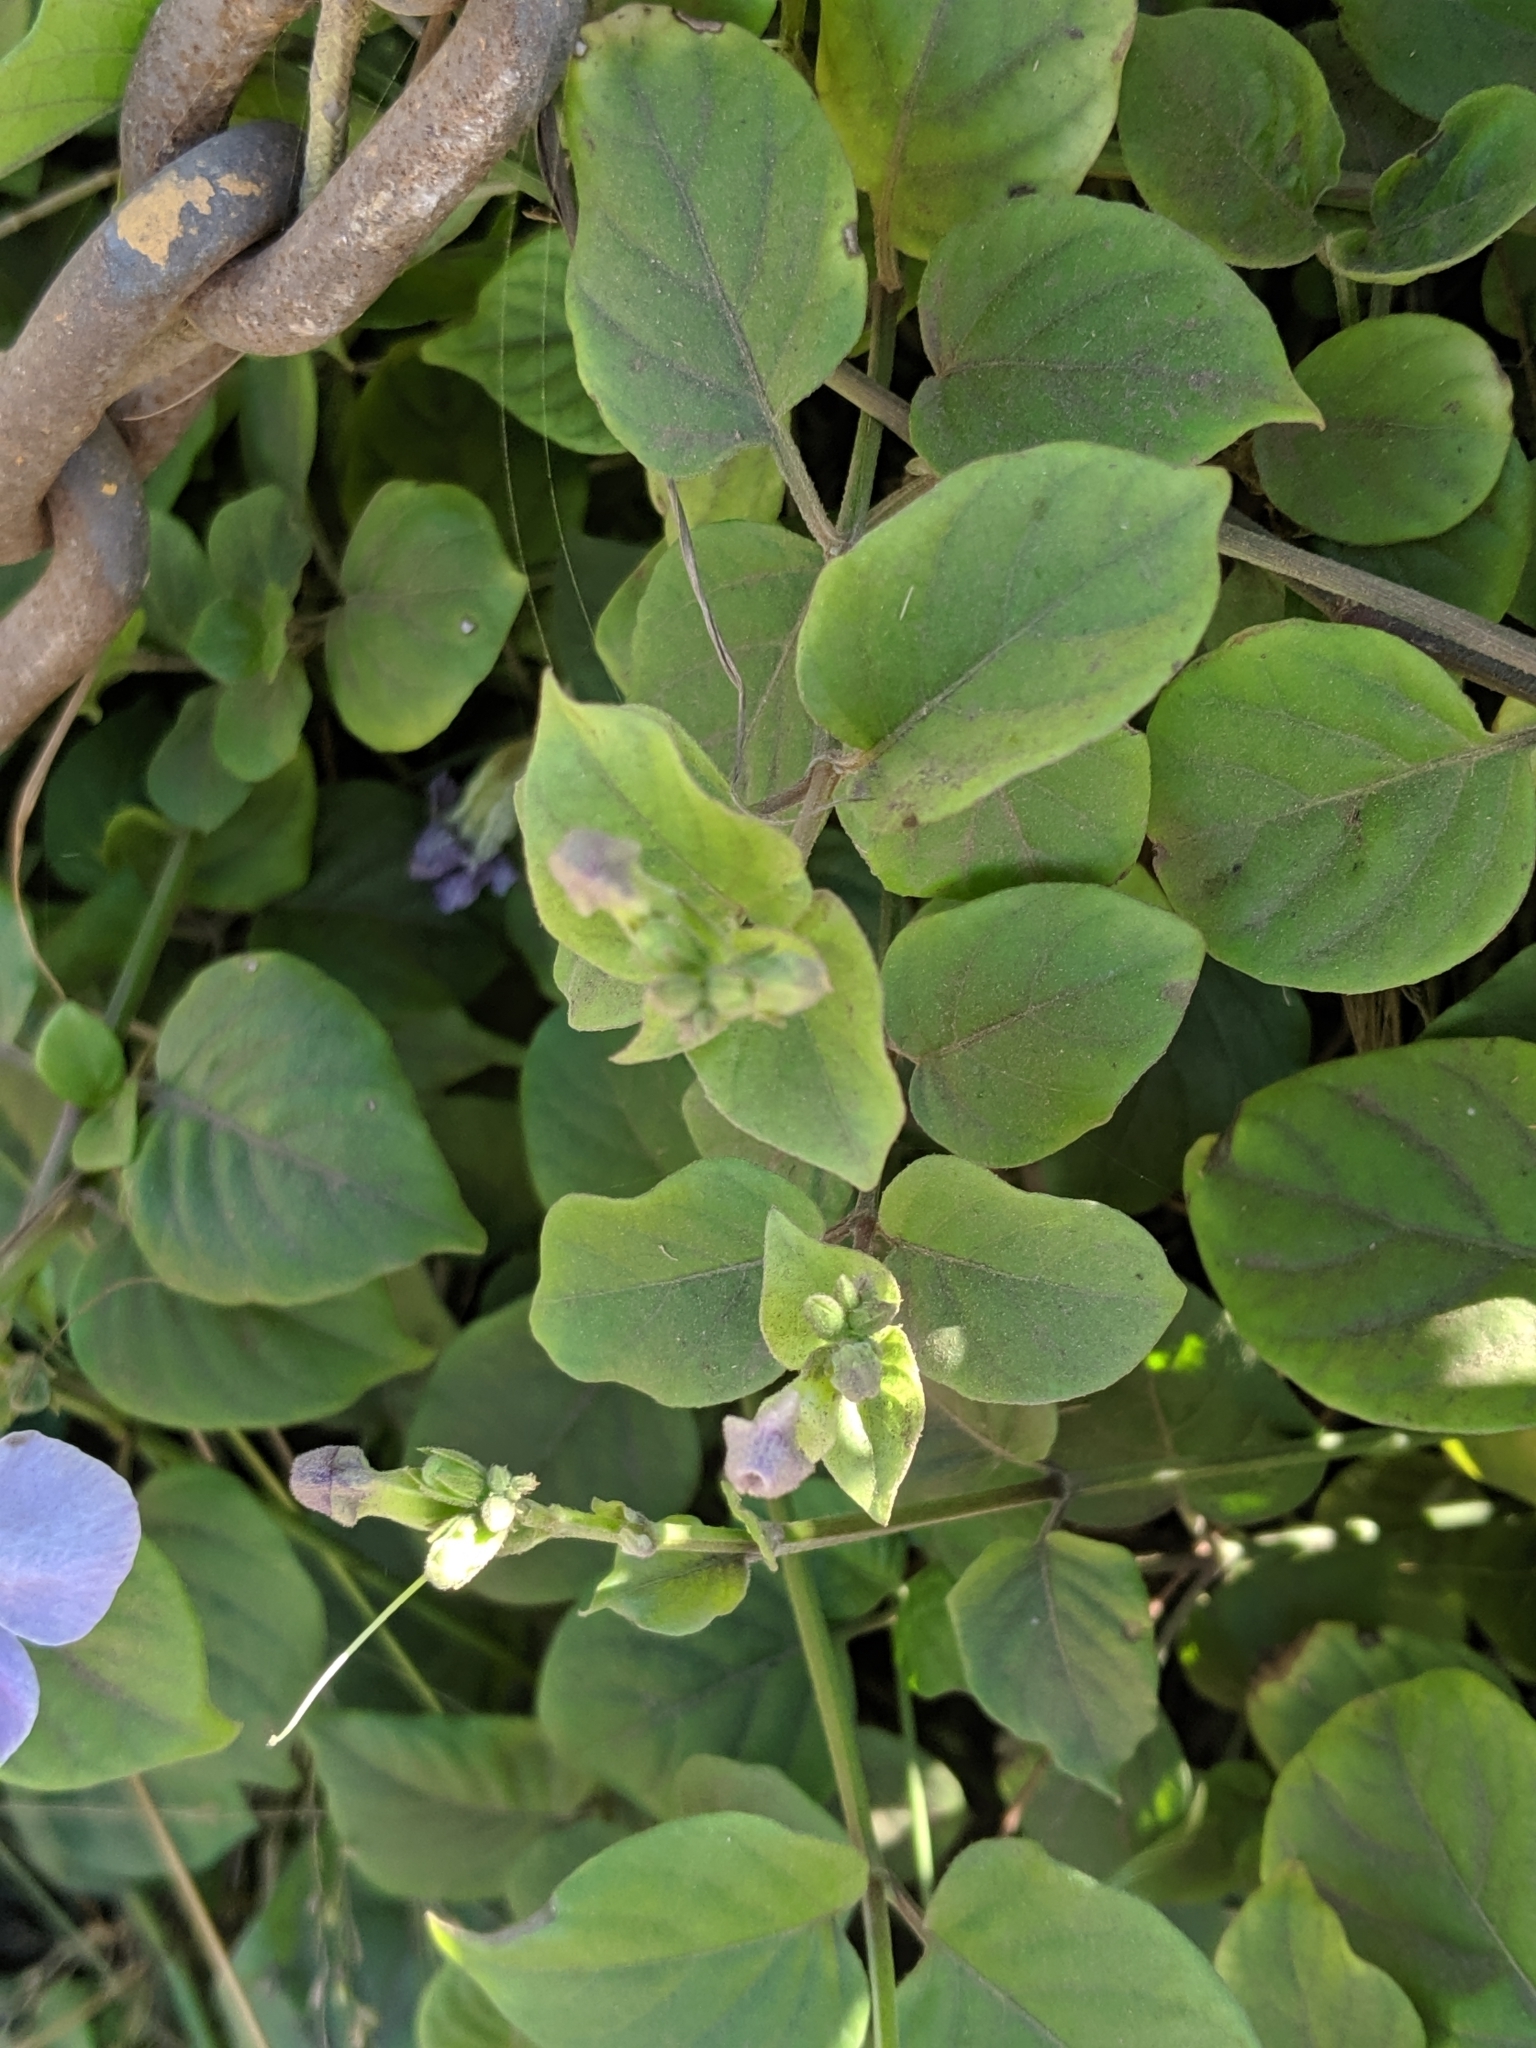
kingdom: Plantae
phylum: Tracheophyta
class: Magnoliopsida
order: Lamiales
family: Acanthaceae
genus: Asystasia
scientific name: Asystasia gangetica
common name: Chinese violet
